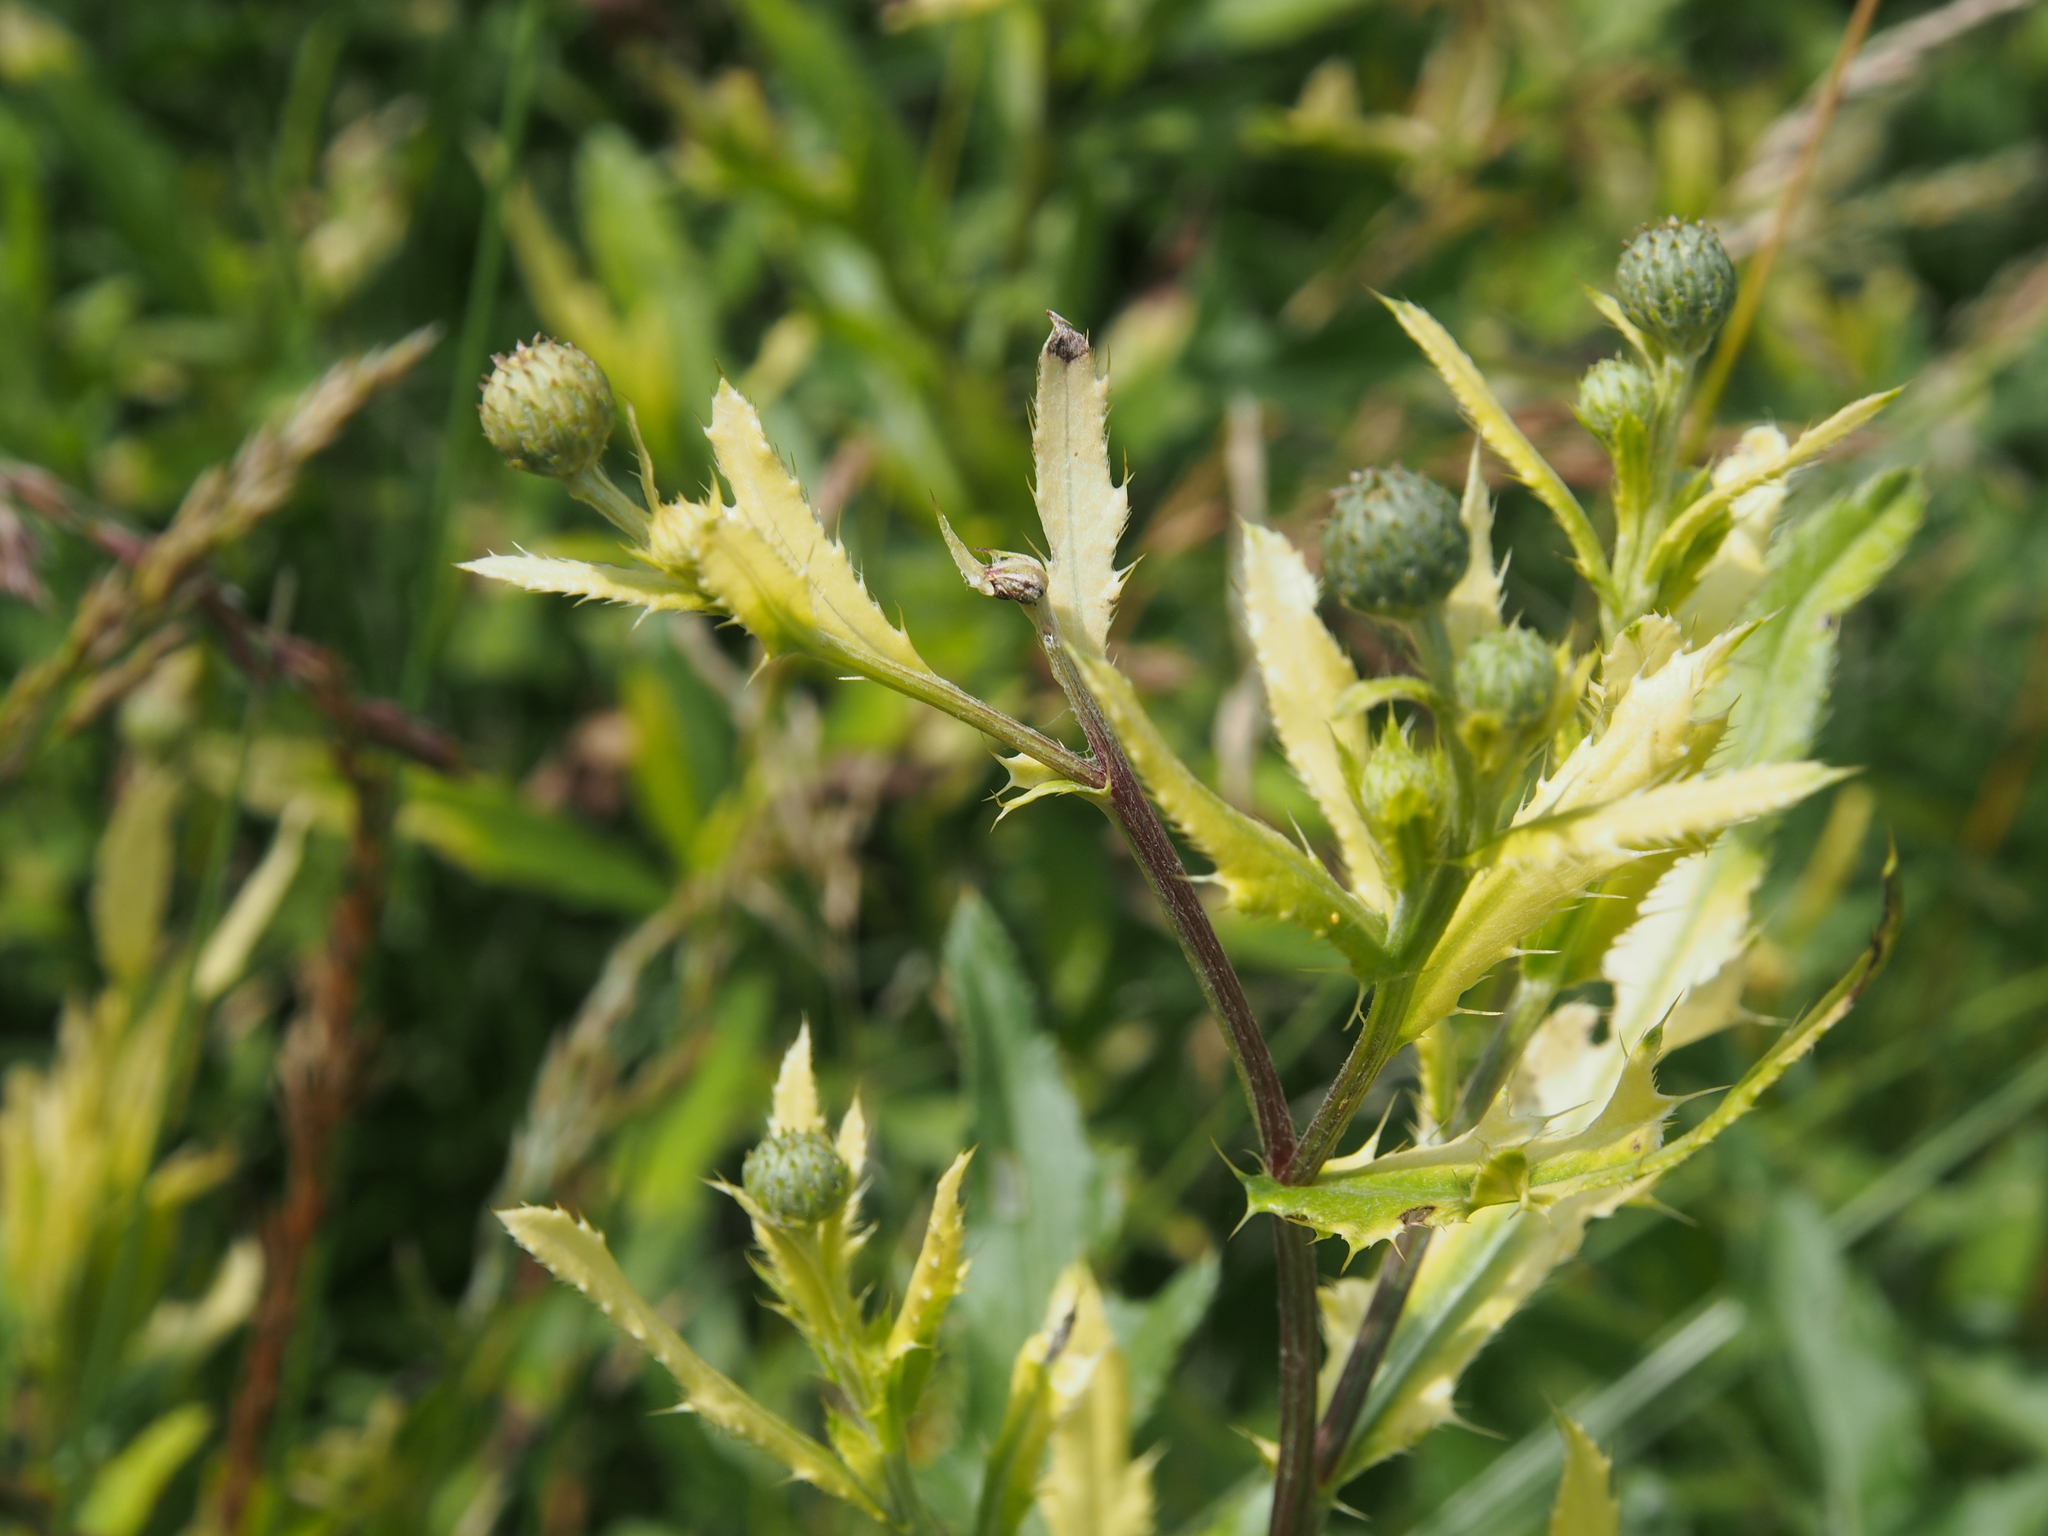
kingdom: Bacteria
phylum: Proteobacteria
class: Gammaproteobacteria
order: Pseudomonadales
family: Pseudomonadaceae
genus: Pseudomonas
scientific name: Pseudomonas syringae
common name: Bacterial speck
